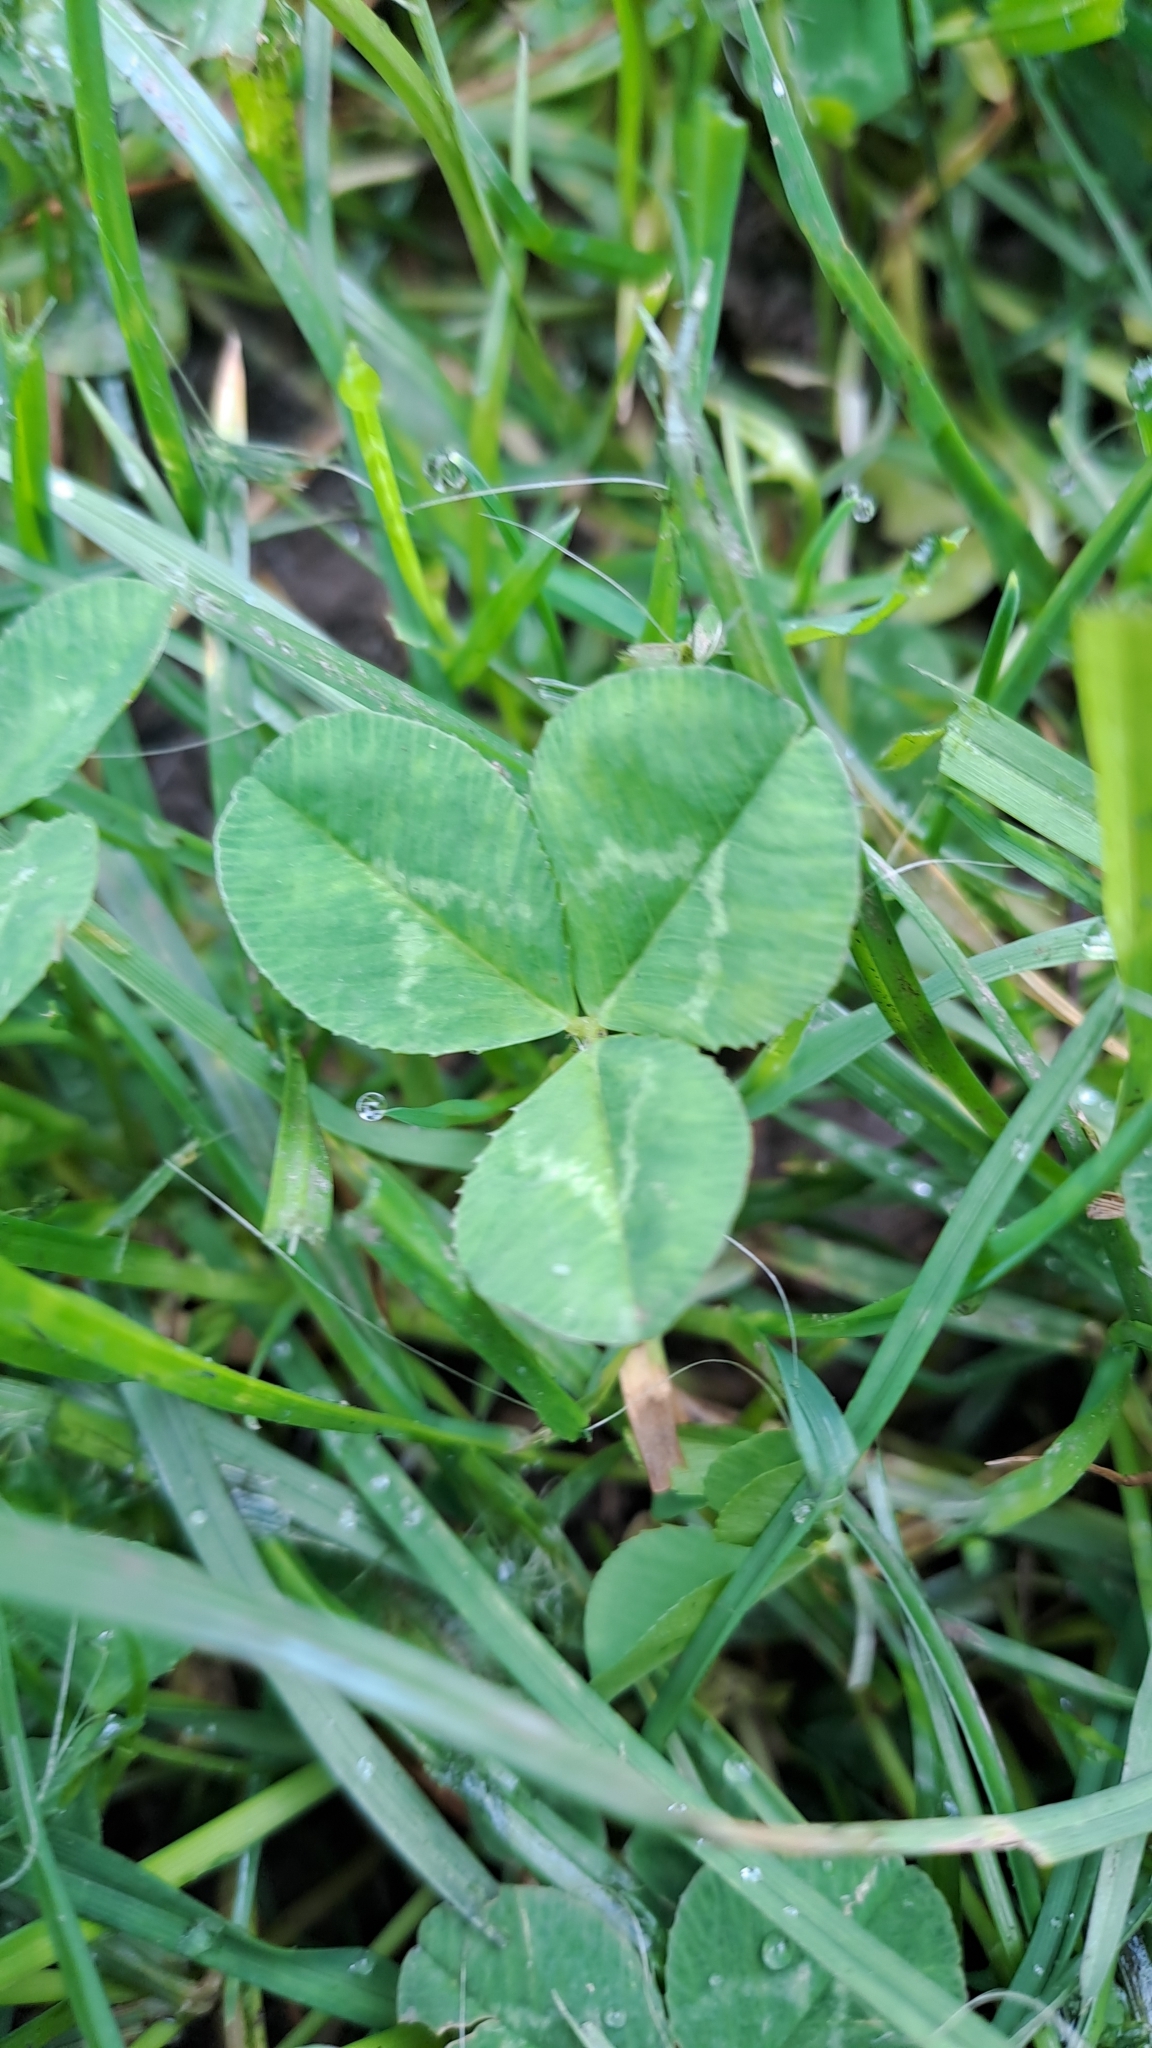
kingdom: Plantae
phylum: Tracheophyta
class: Magnoliopsida
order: Fabales
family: Fabaceae
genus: Trifolium
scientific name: Trifolium repens
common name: White clover
